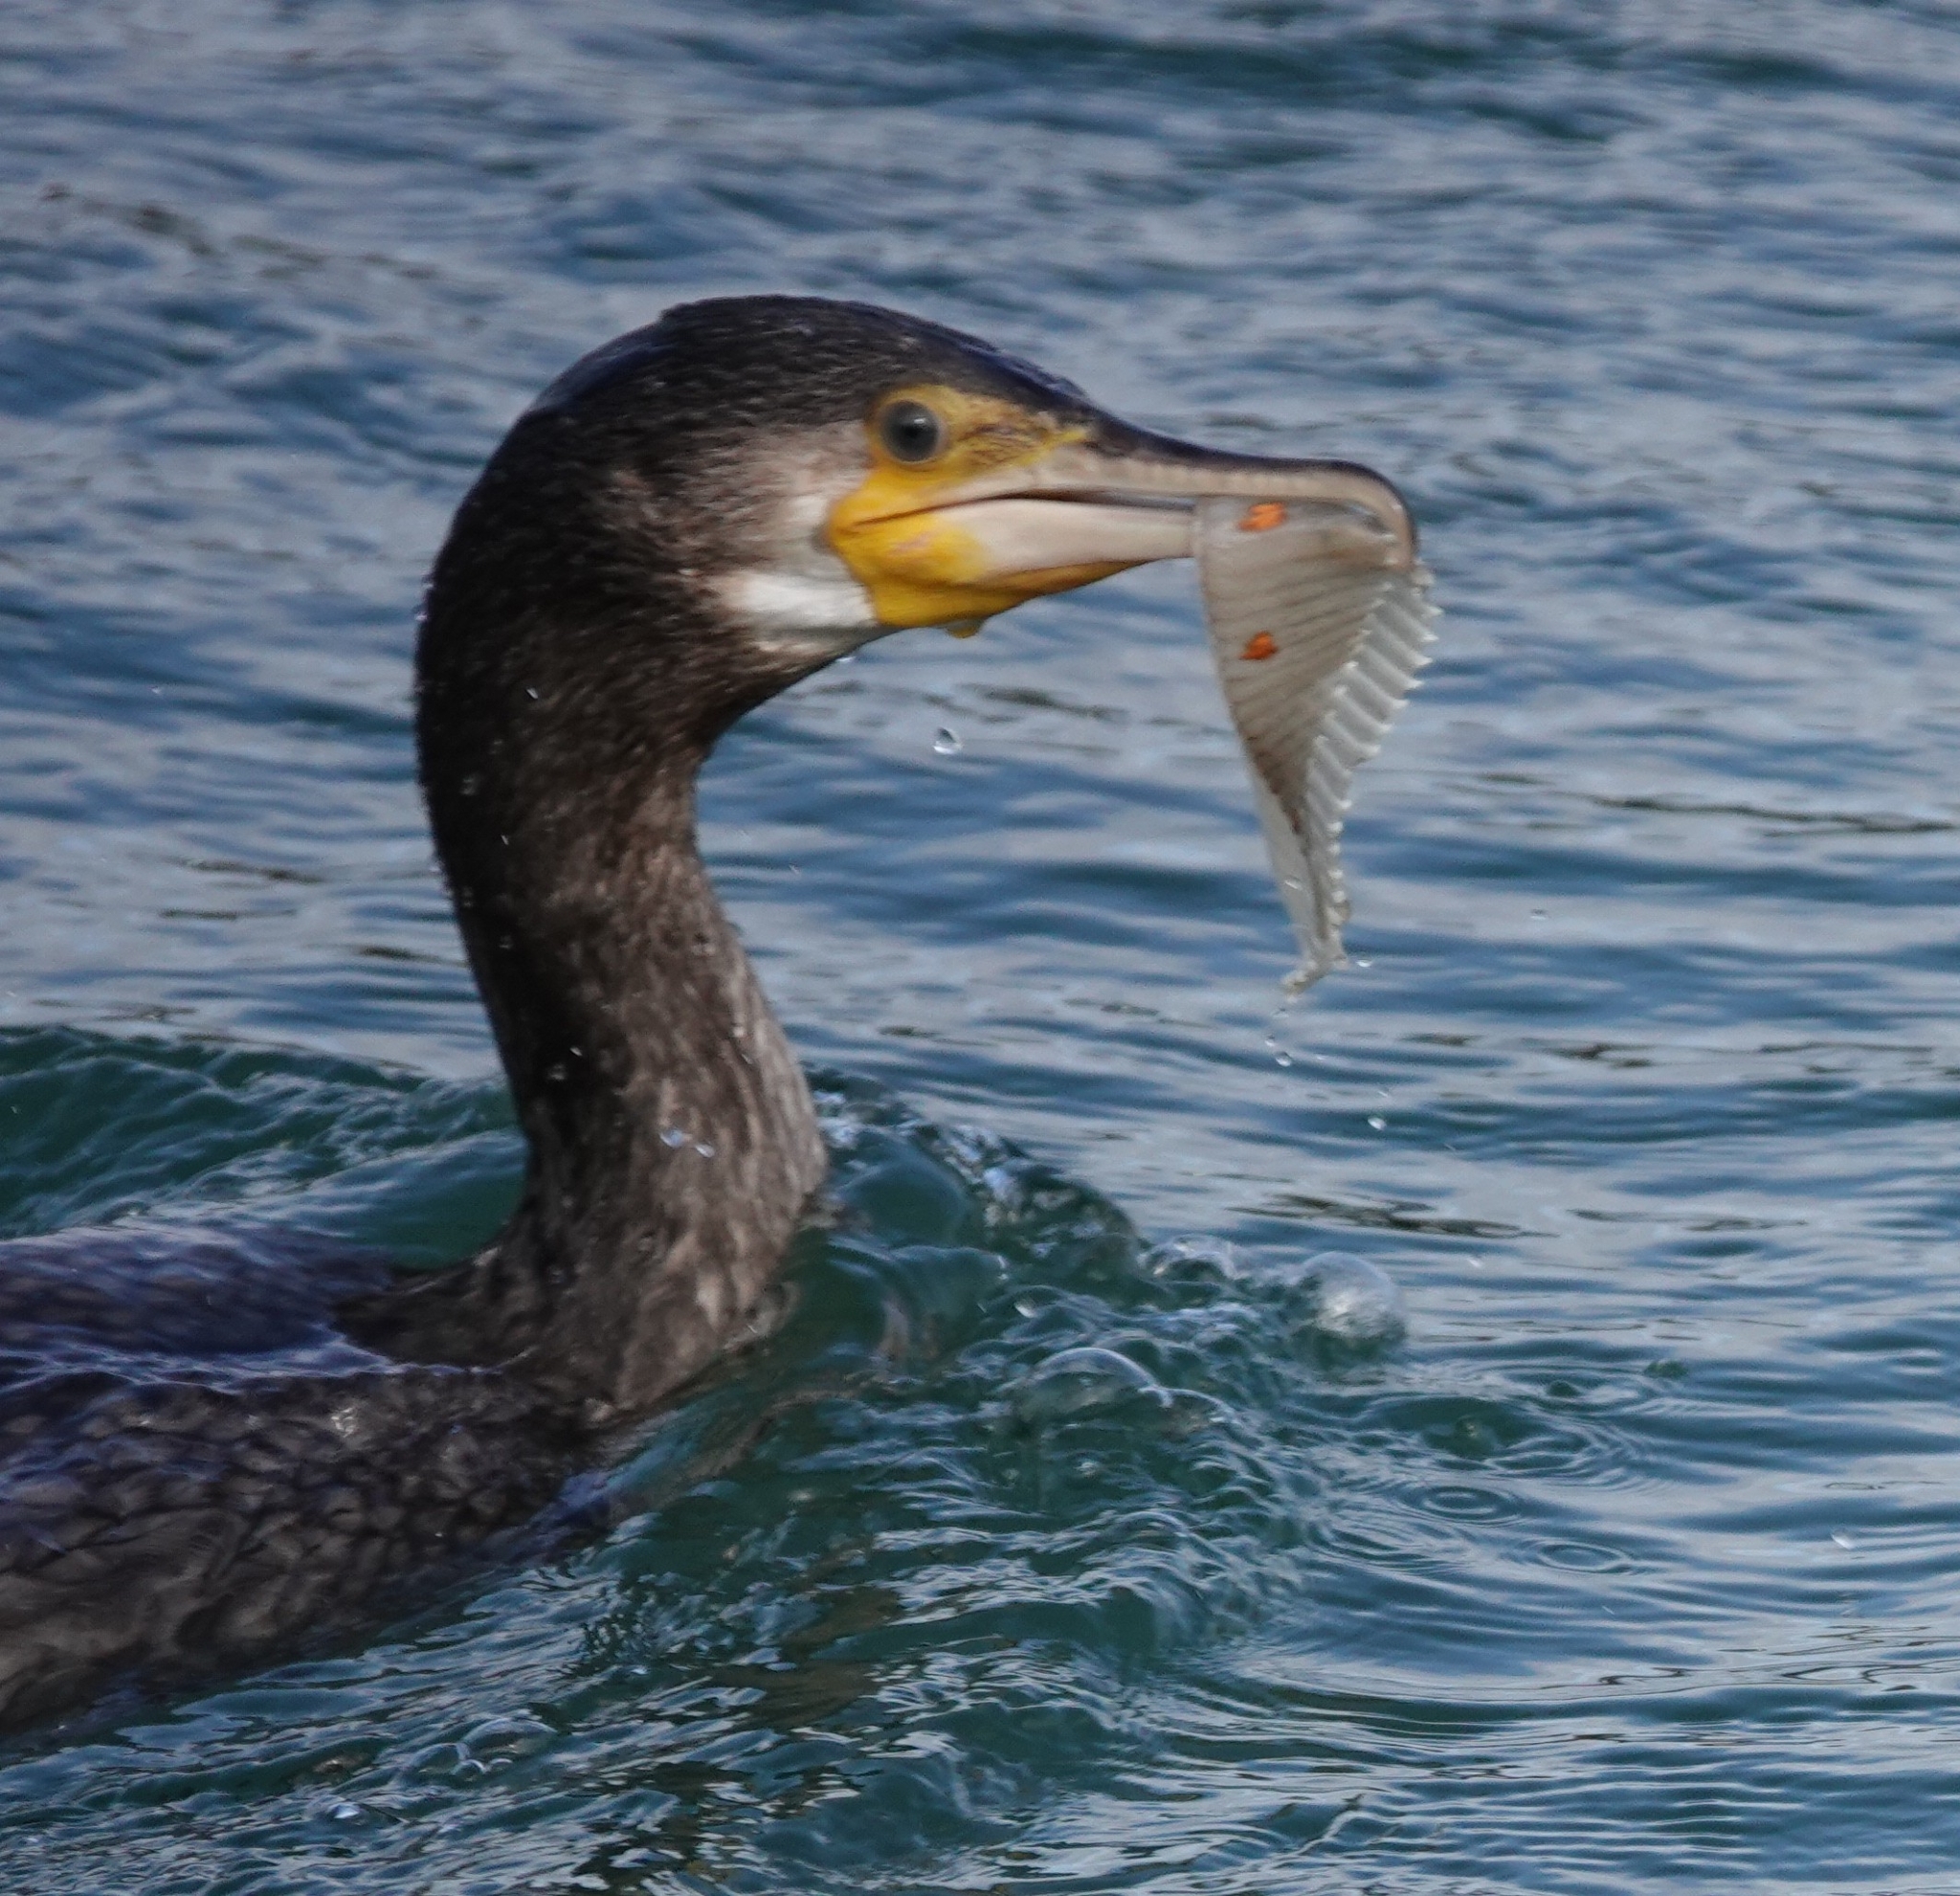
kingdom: Animalia
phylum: Chordata
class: Aves
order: Suliformes
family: Phalacrocoracidae
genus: Phalacrocorax
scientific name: Phalacrocorax carbo
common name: Great cormorant
